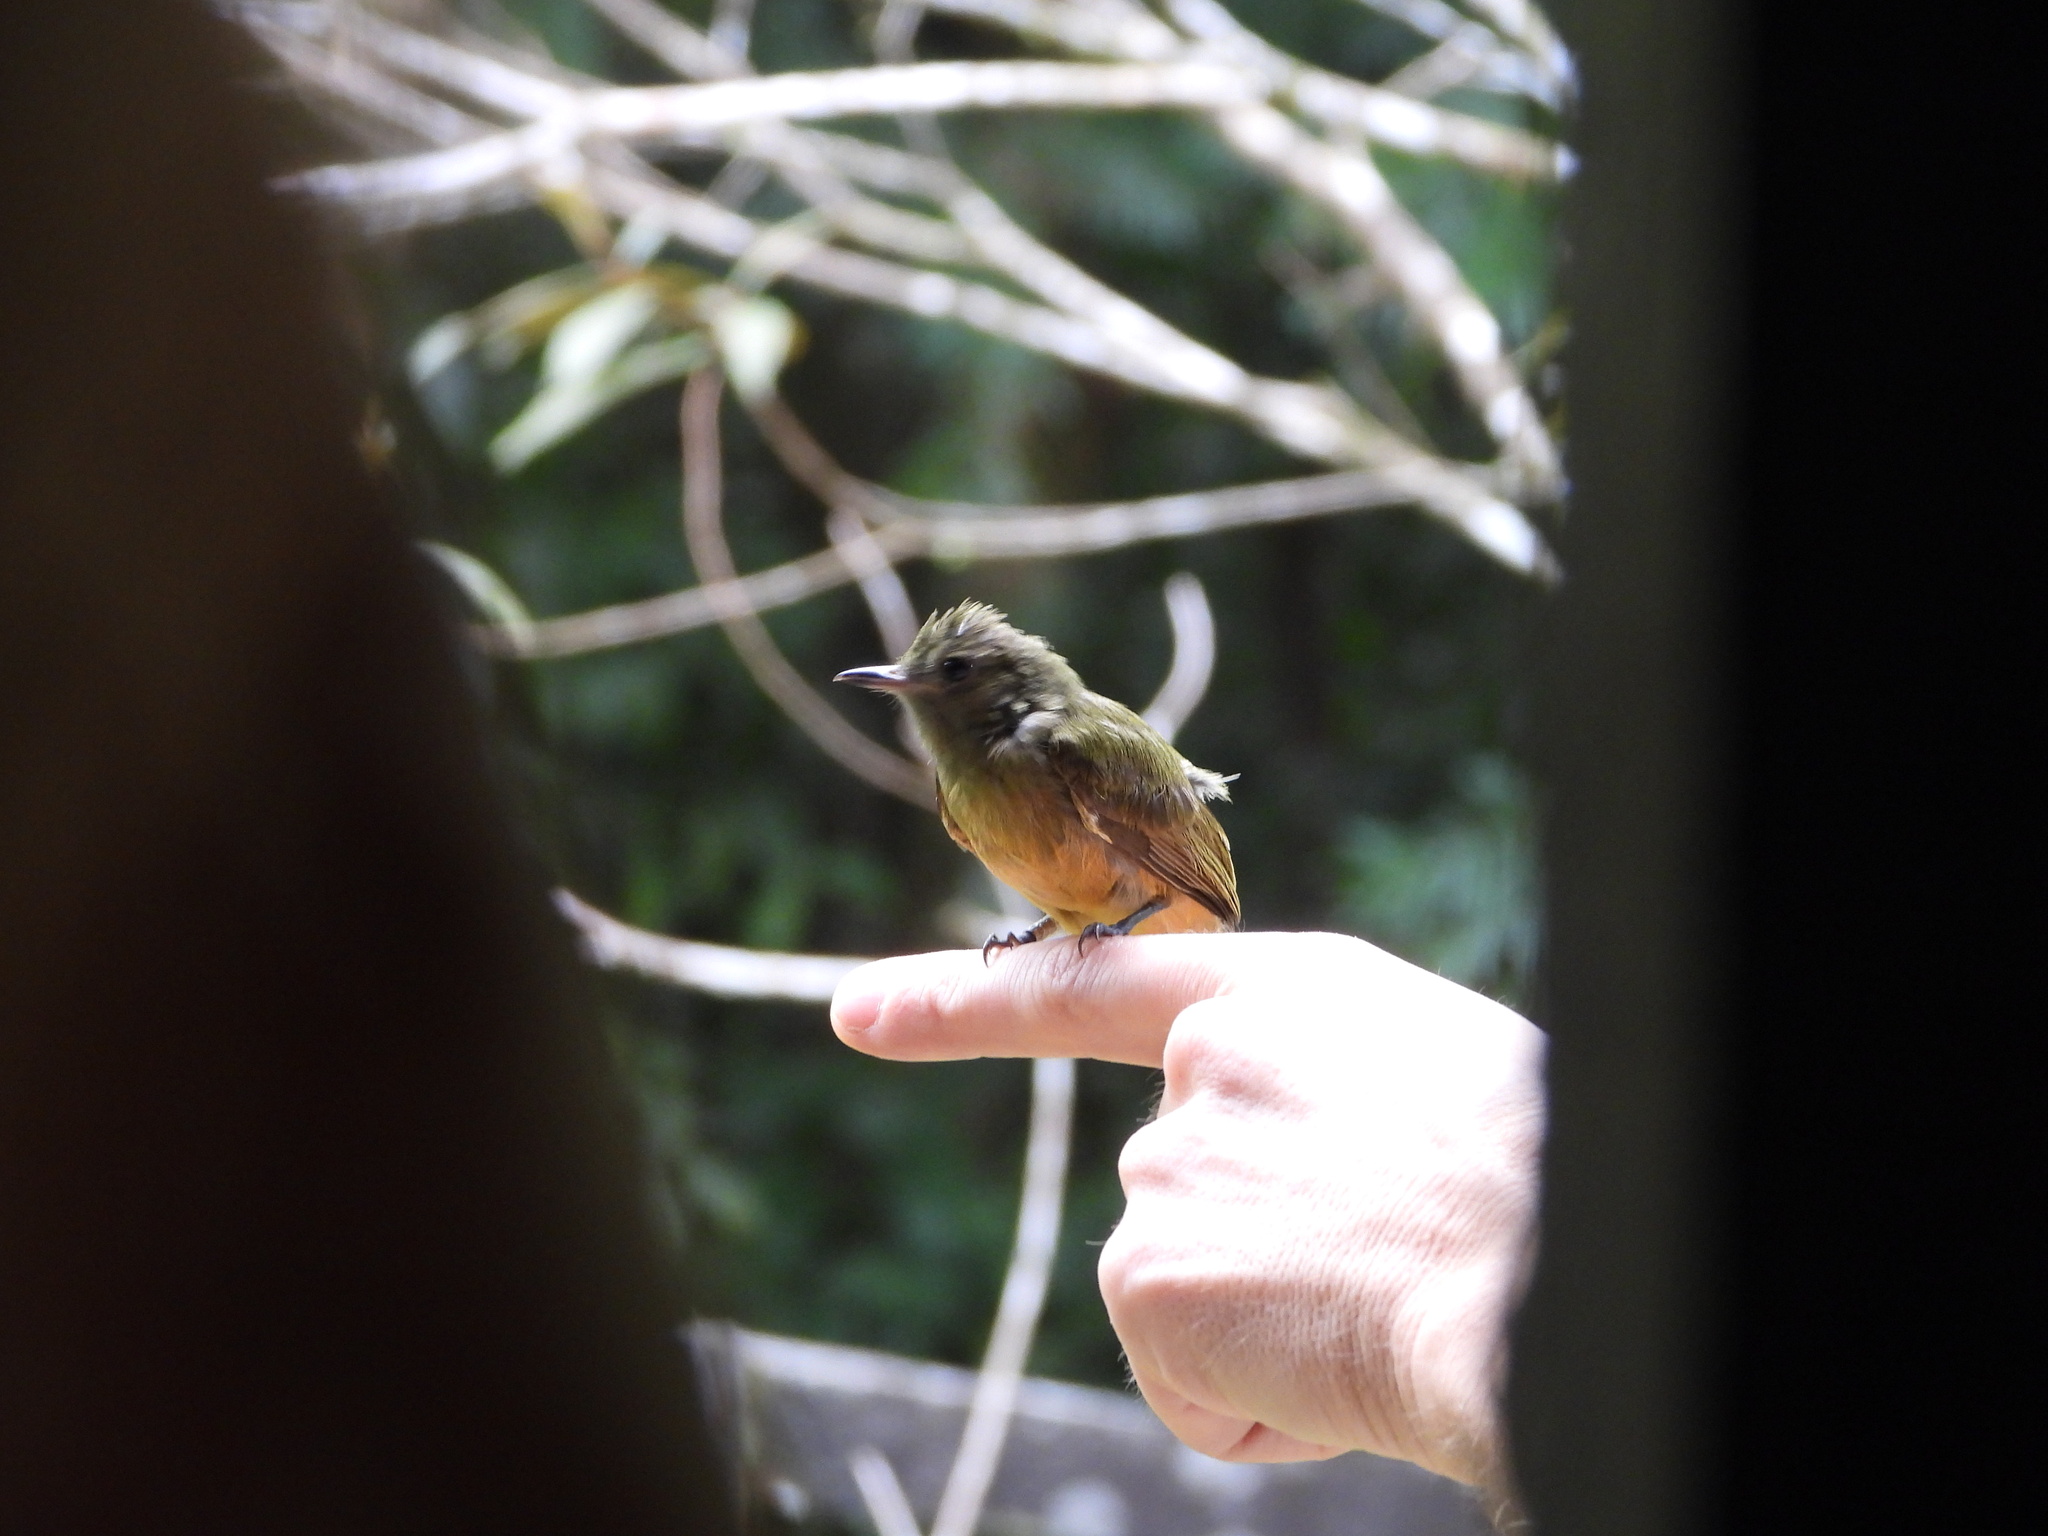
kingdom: Animalia
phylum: Chordata
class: Aves
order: Passeriformes
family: Tyrannidae
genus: Mionectes
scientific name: Mionectes oleagineus
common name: Ochre-bellied flycatcher
